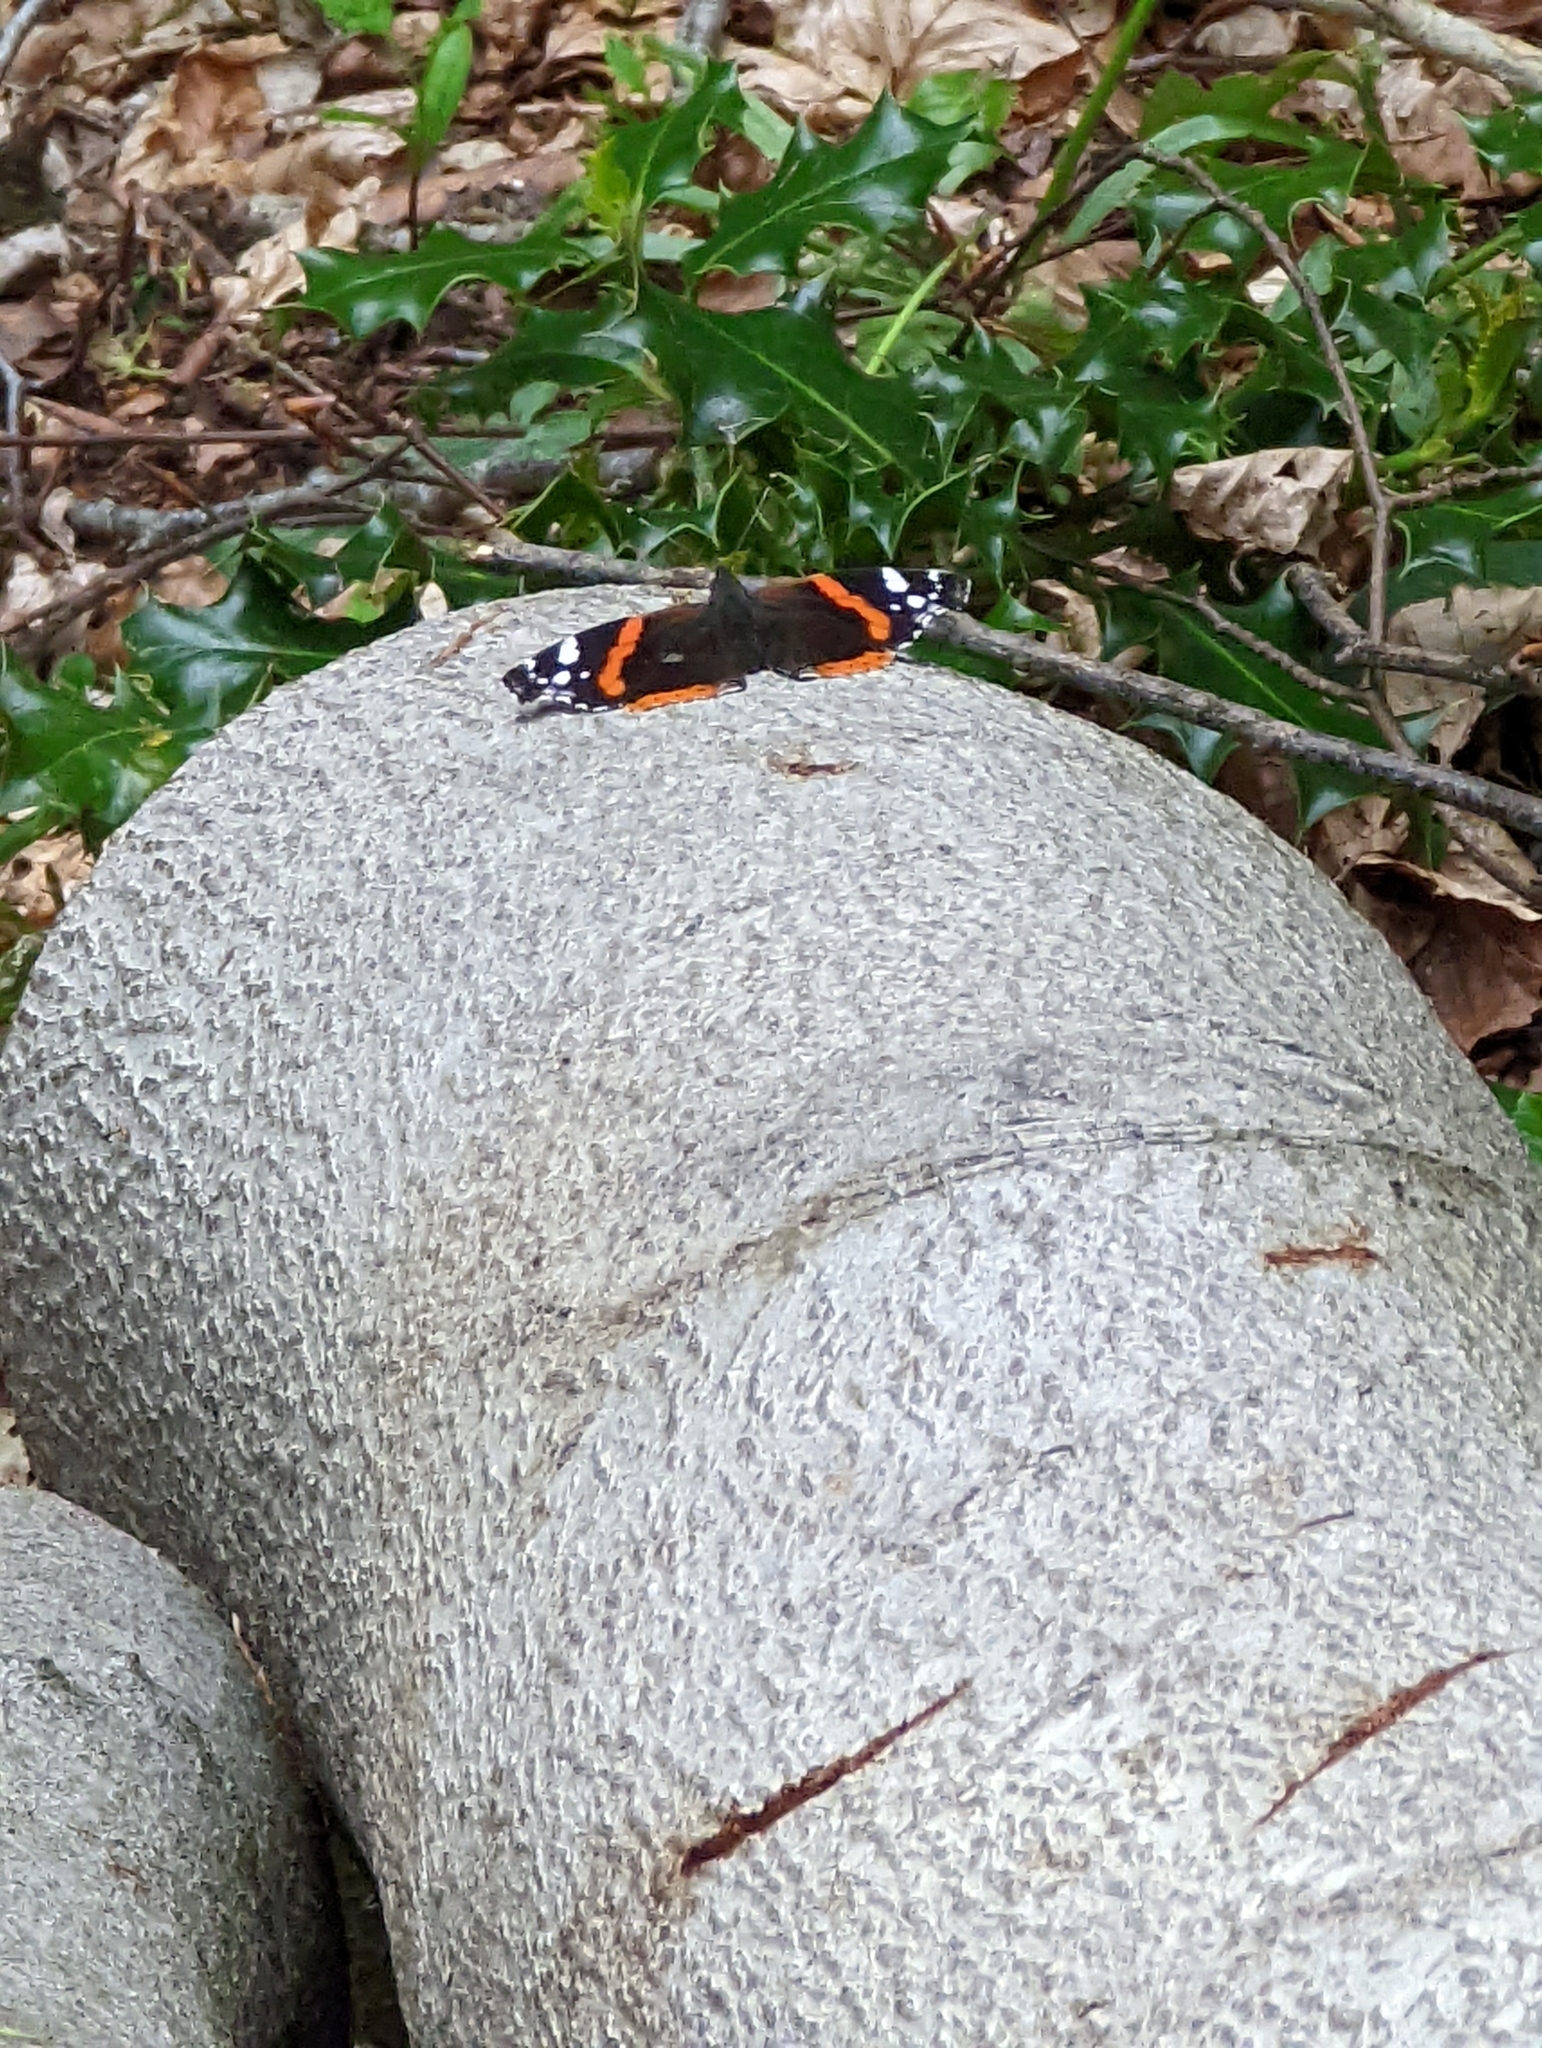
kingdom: Animalia
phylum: Arthropoda
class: Insecta
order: Lepidoptera
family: Nymphalidae
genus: Vanessa
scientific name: Vanessa atalanta
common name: Red admiral
